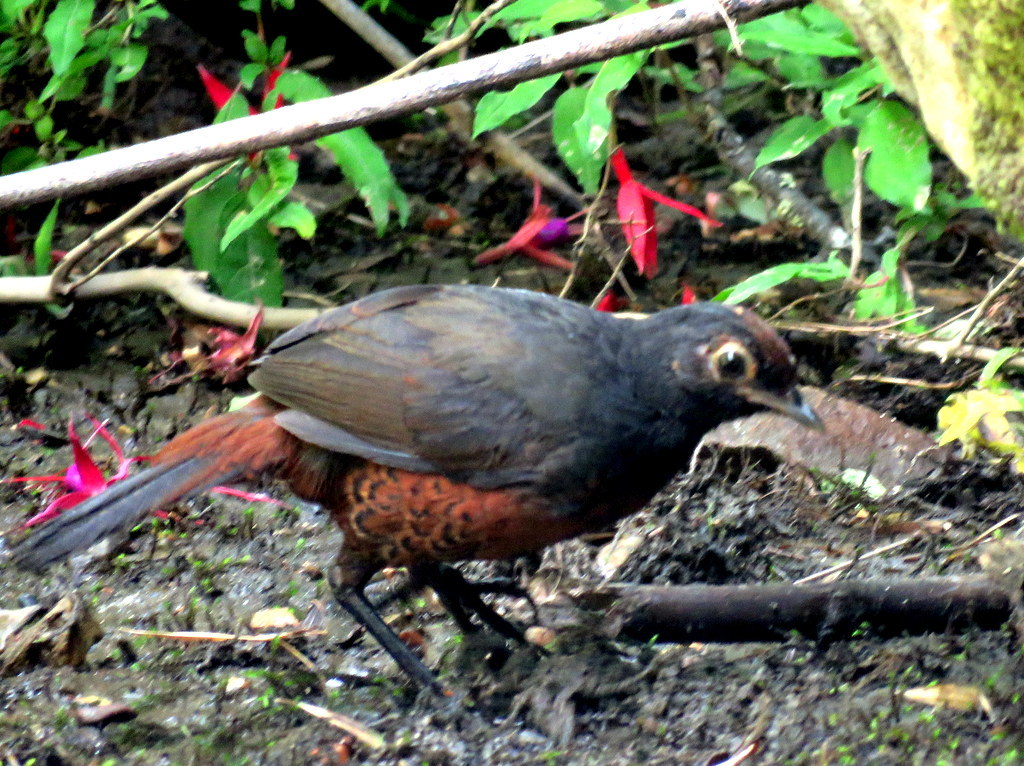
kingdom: Animalia
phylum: Chordata
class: Aves
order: Passeriformes
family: Rhinocryptidae
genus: Pteroptochos
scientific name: Pteroptochos tarnii
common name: Black-throated huet-huet
